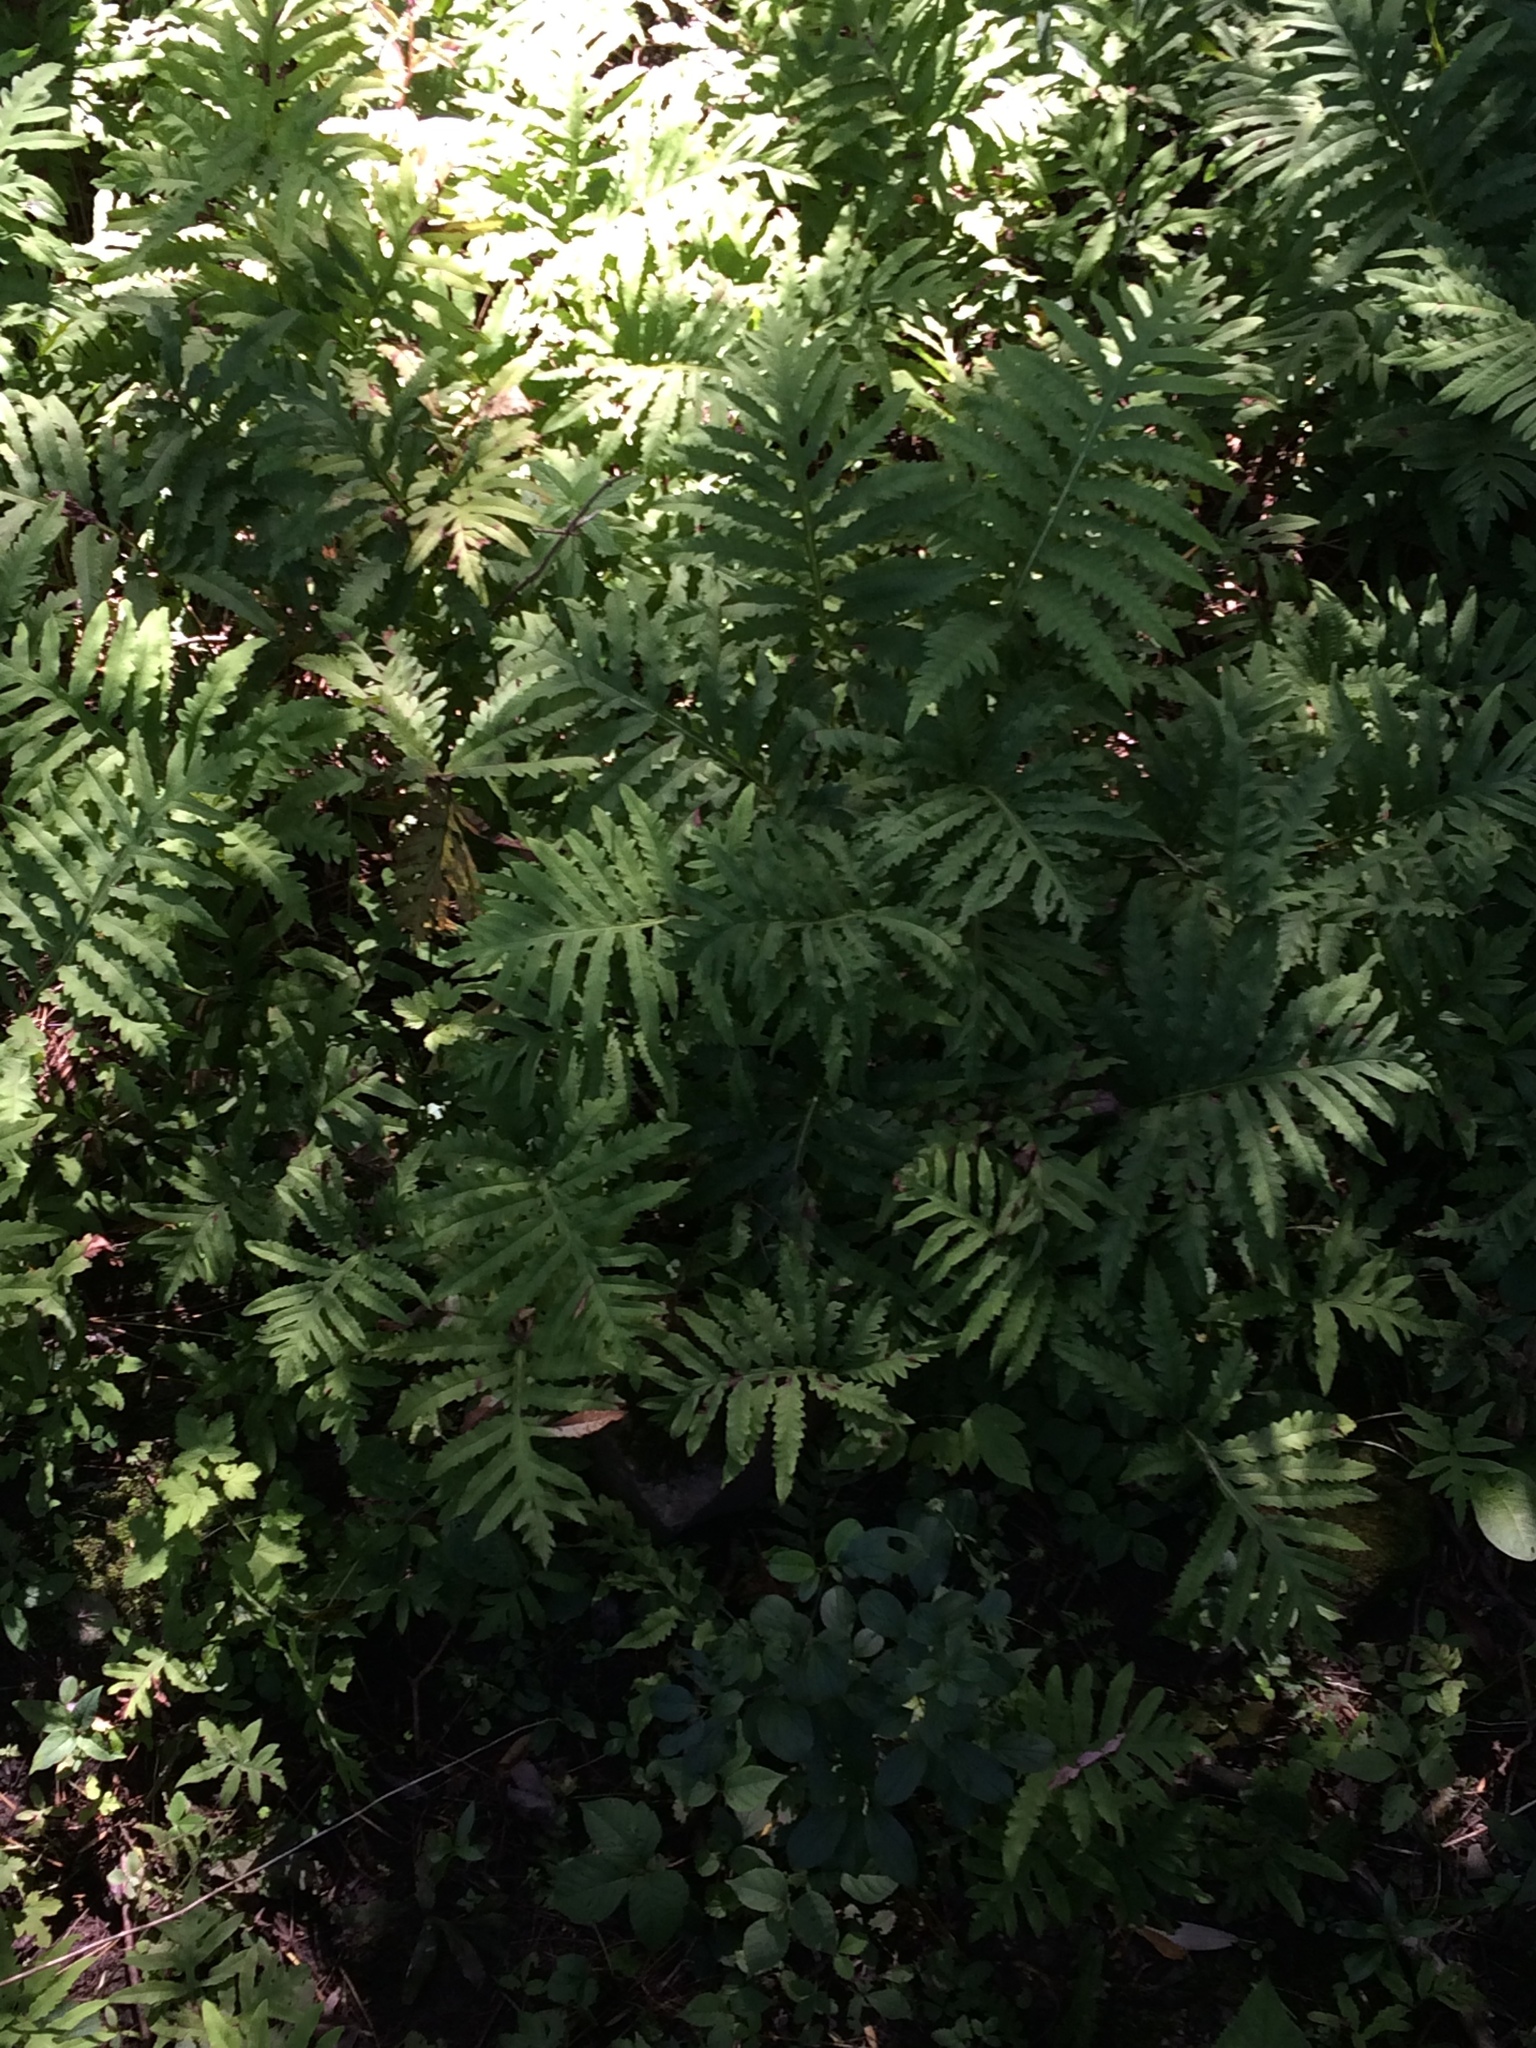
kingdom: Plantae
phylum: Tracheophyta
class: Polypodiopsida
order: Polypodiales
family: Onocleaceae
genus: Onoclea
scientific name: Onoclea sensibilis
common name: Sensitive fern
